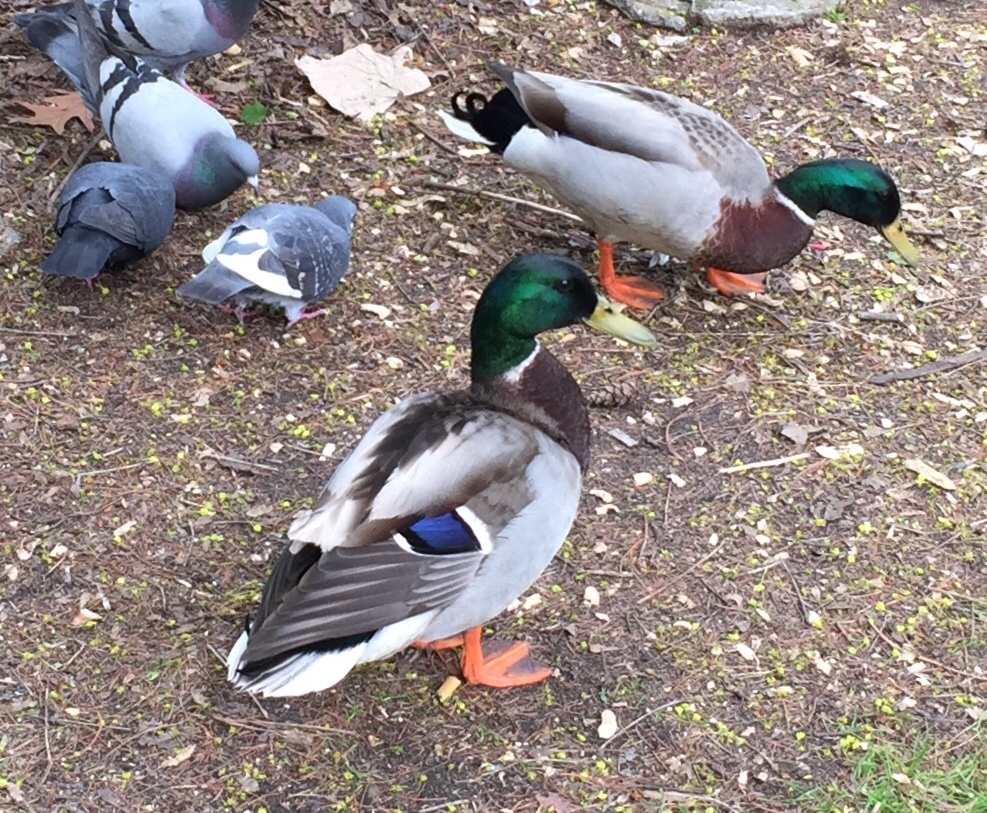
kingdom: Animalia
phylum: Chordata
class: Aves
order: Anseriformes
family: Anatidae
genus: Anas
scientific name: Anas platyrhynchos
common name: Mallard
